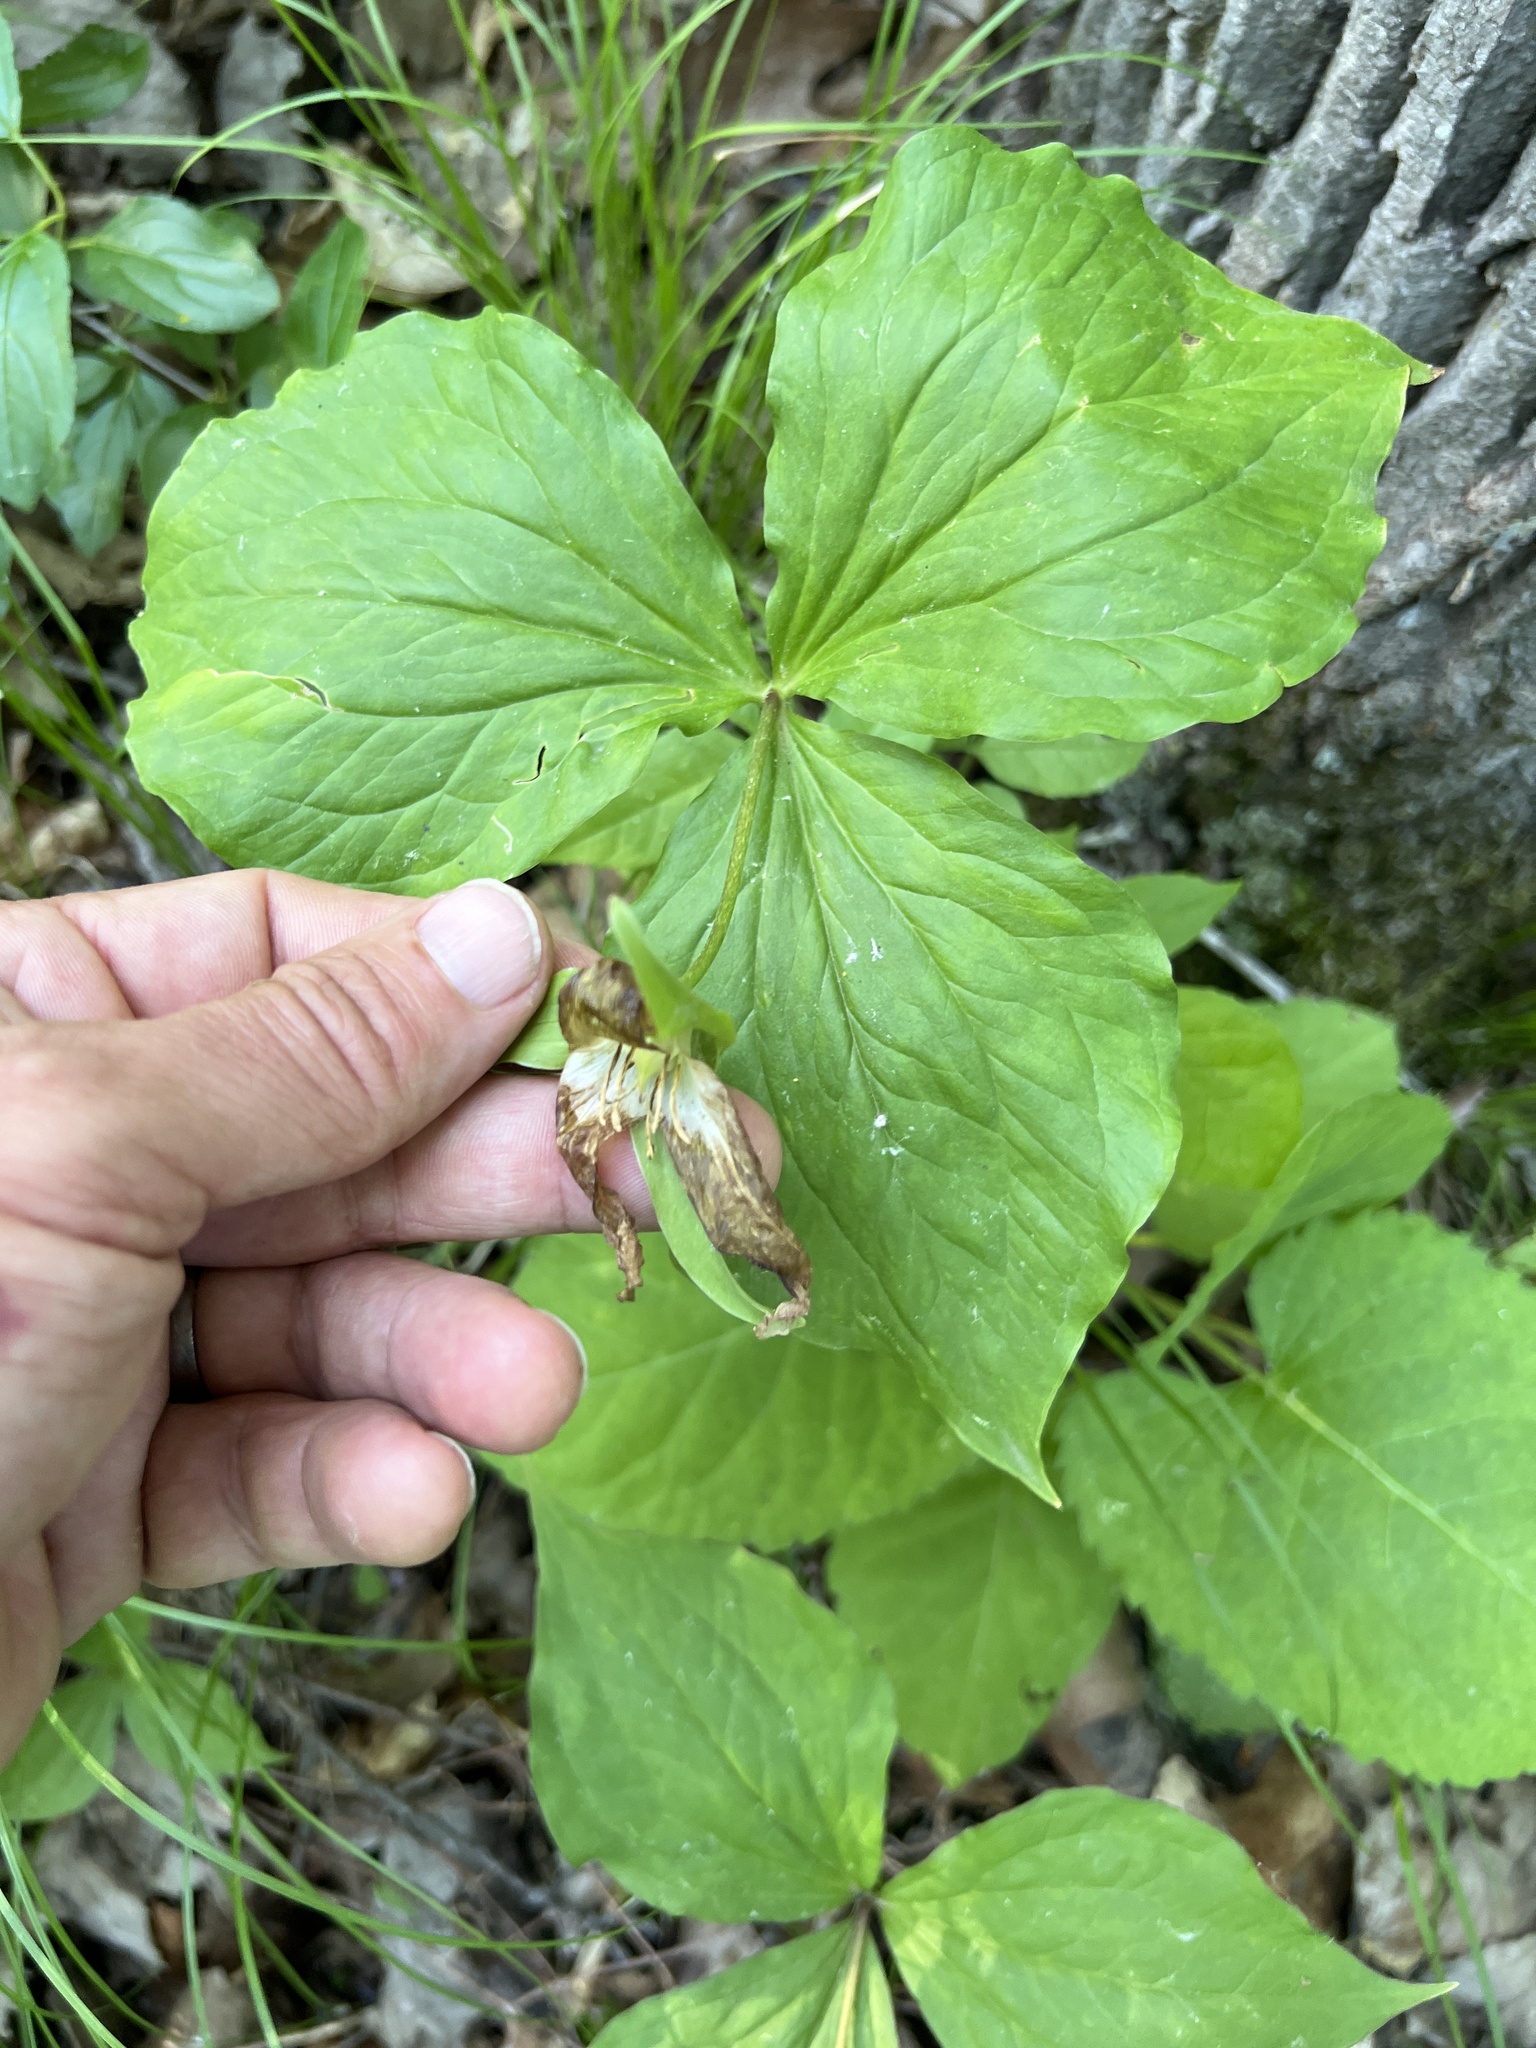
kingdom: Plantae
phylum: Tracheophyta
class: Liliopsida
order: Liliales
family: Melanthiaceae
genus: Trillium
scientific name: Trillium grandiflorum
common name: Great white trillium
